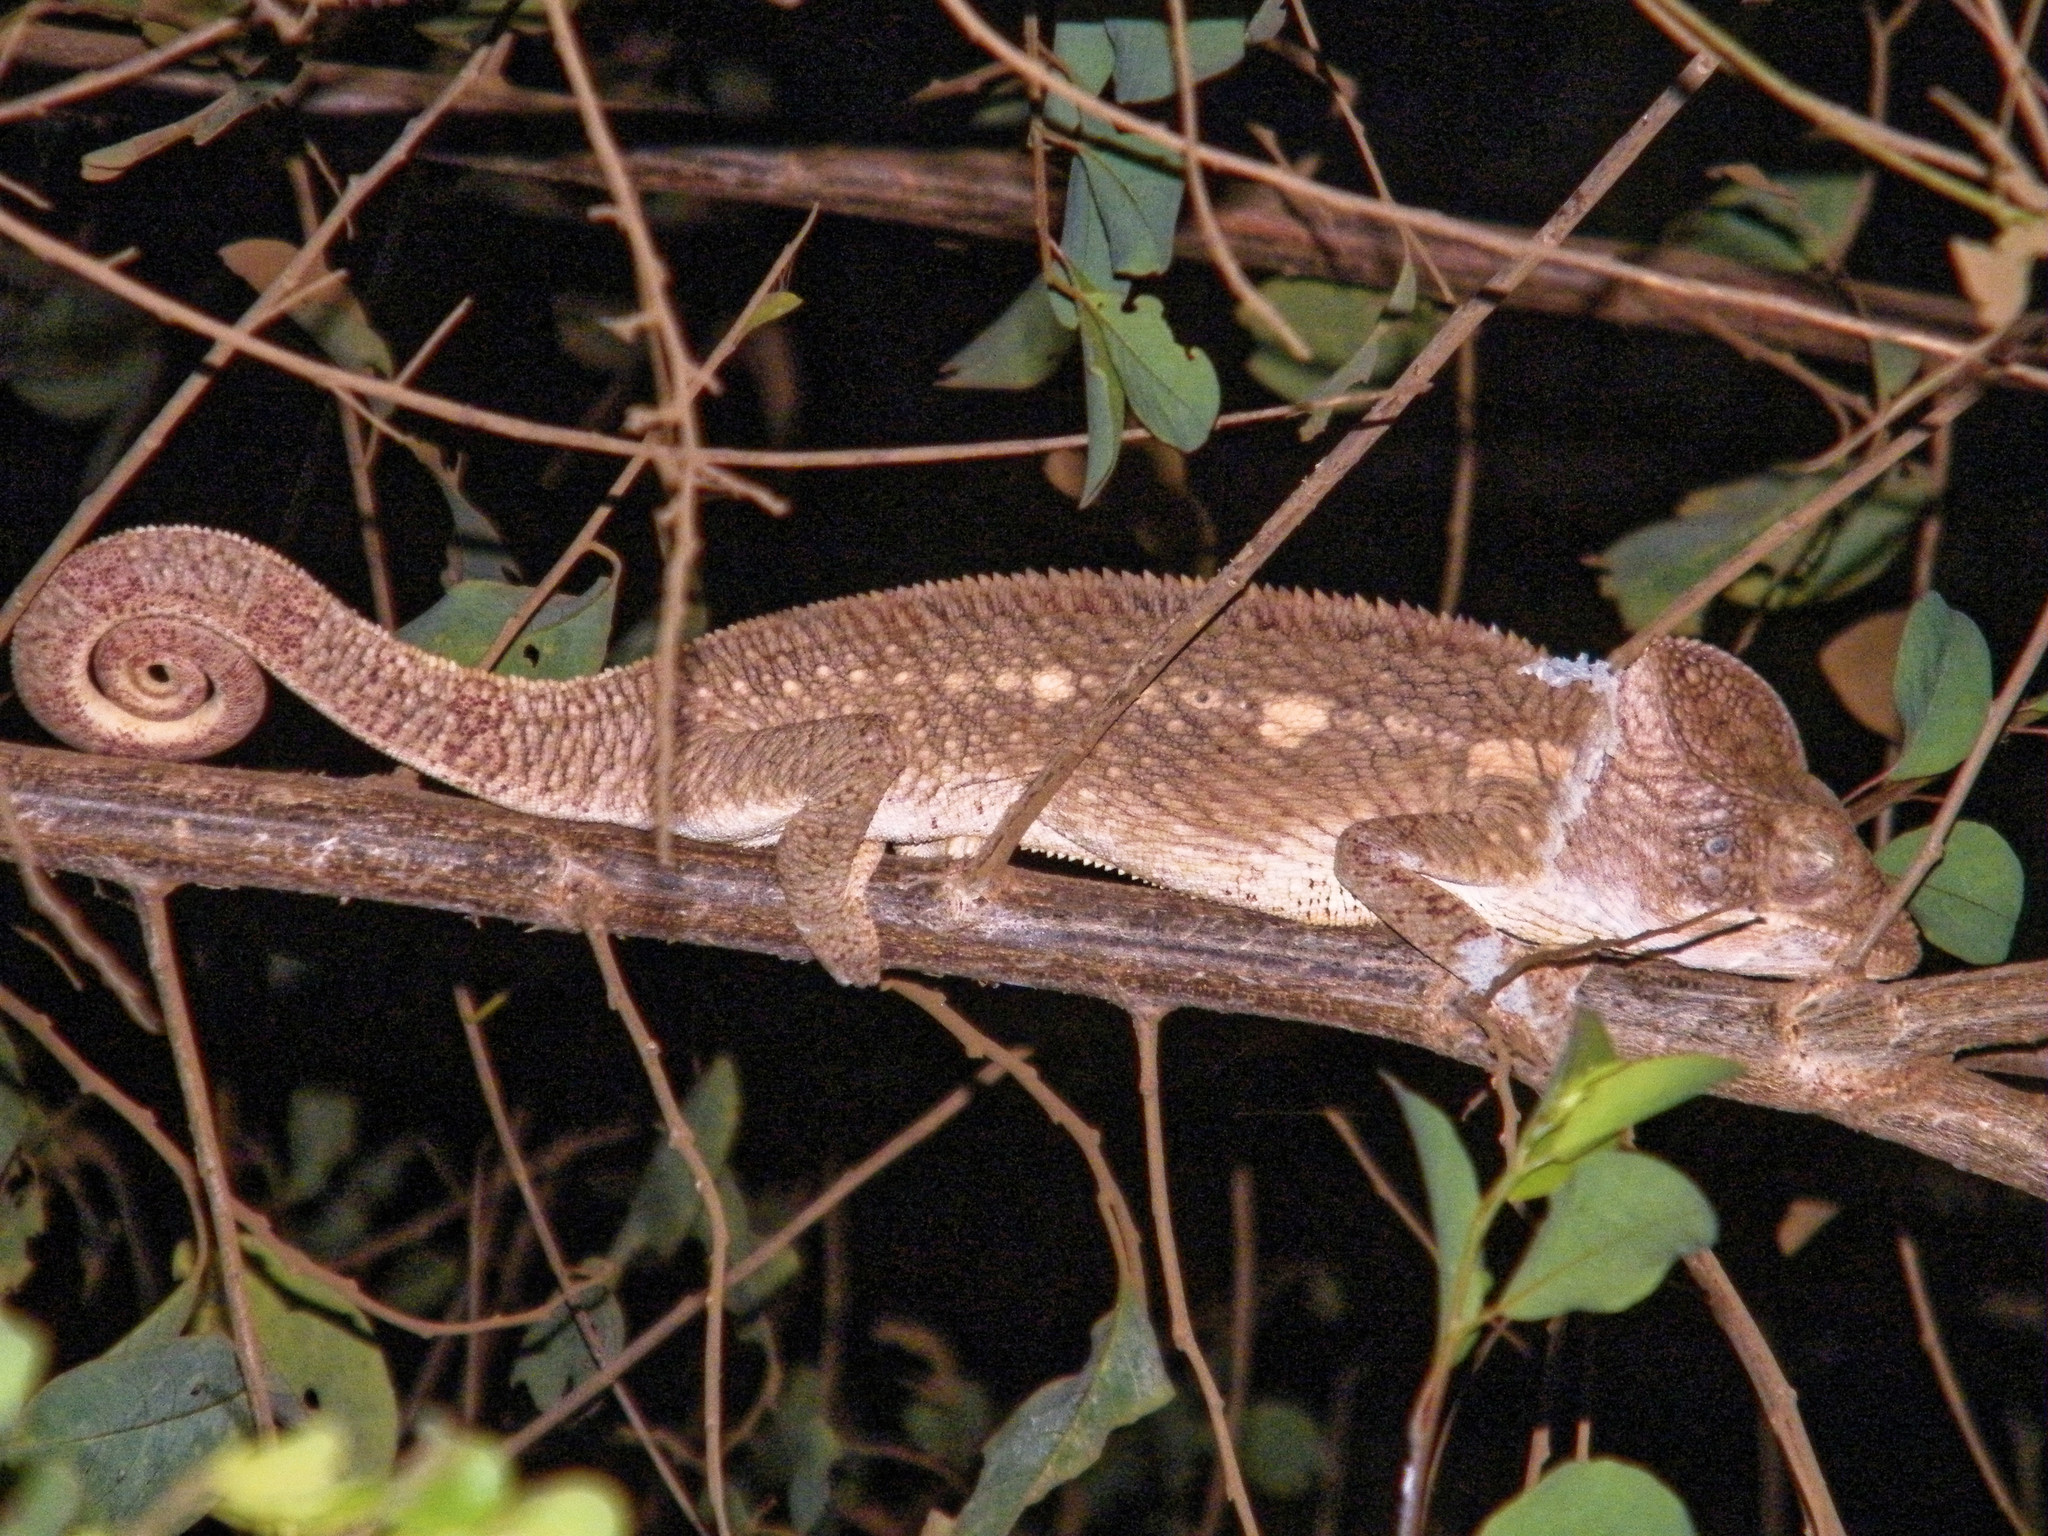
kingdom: Animalia
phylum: Chordata
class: Squamata
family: Chamaeleonidae
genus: Furcifer
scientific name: Furcifer oustaleti
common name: Oustalet's chameleon
